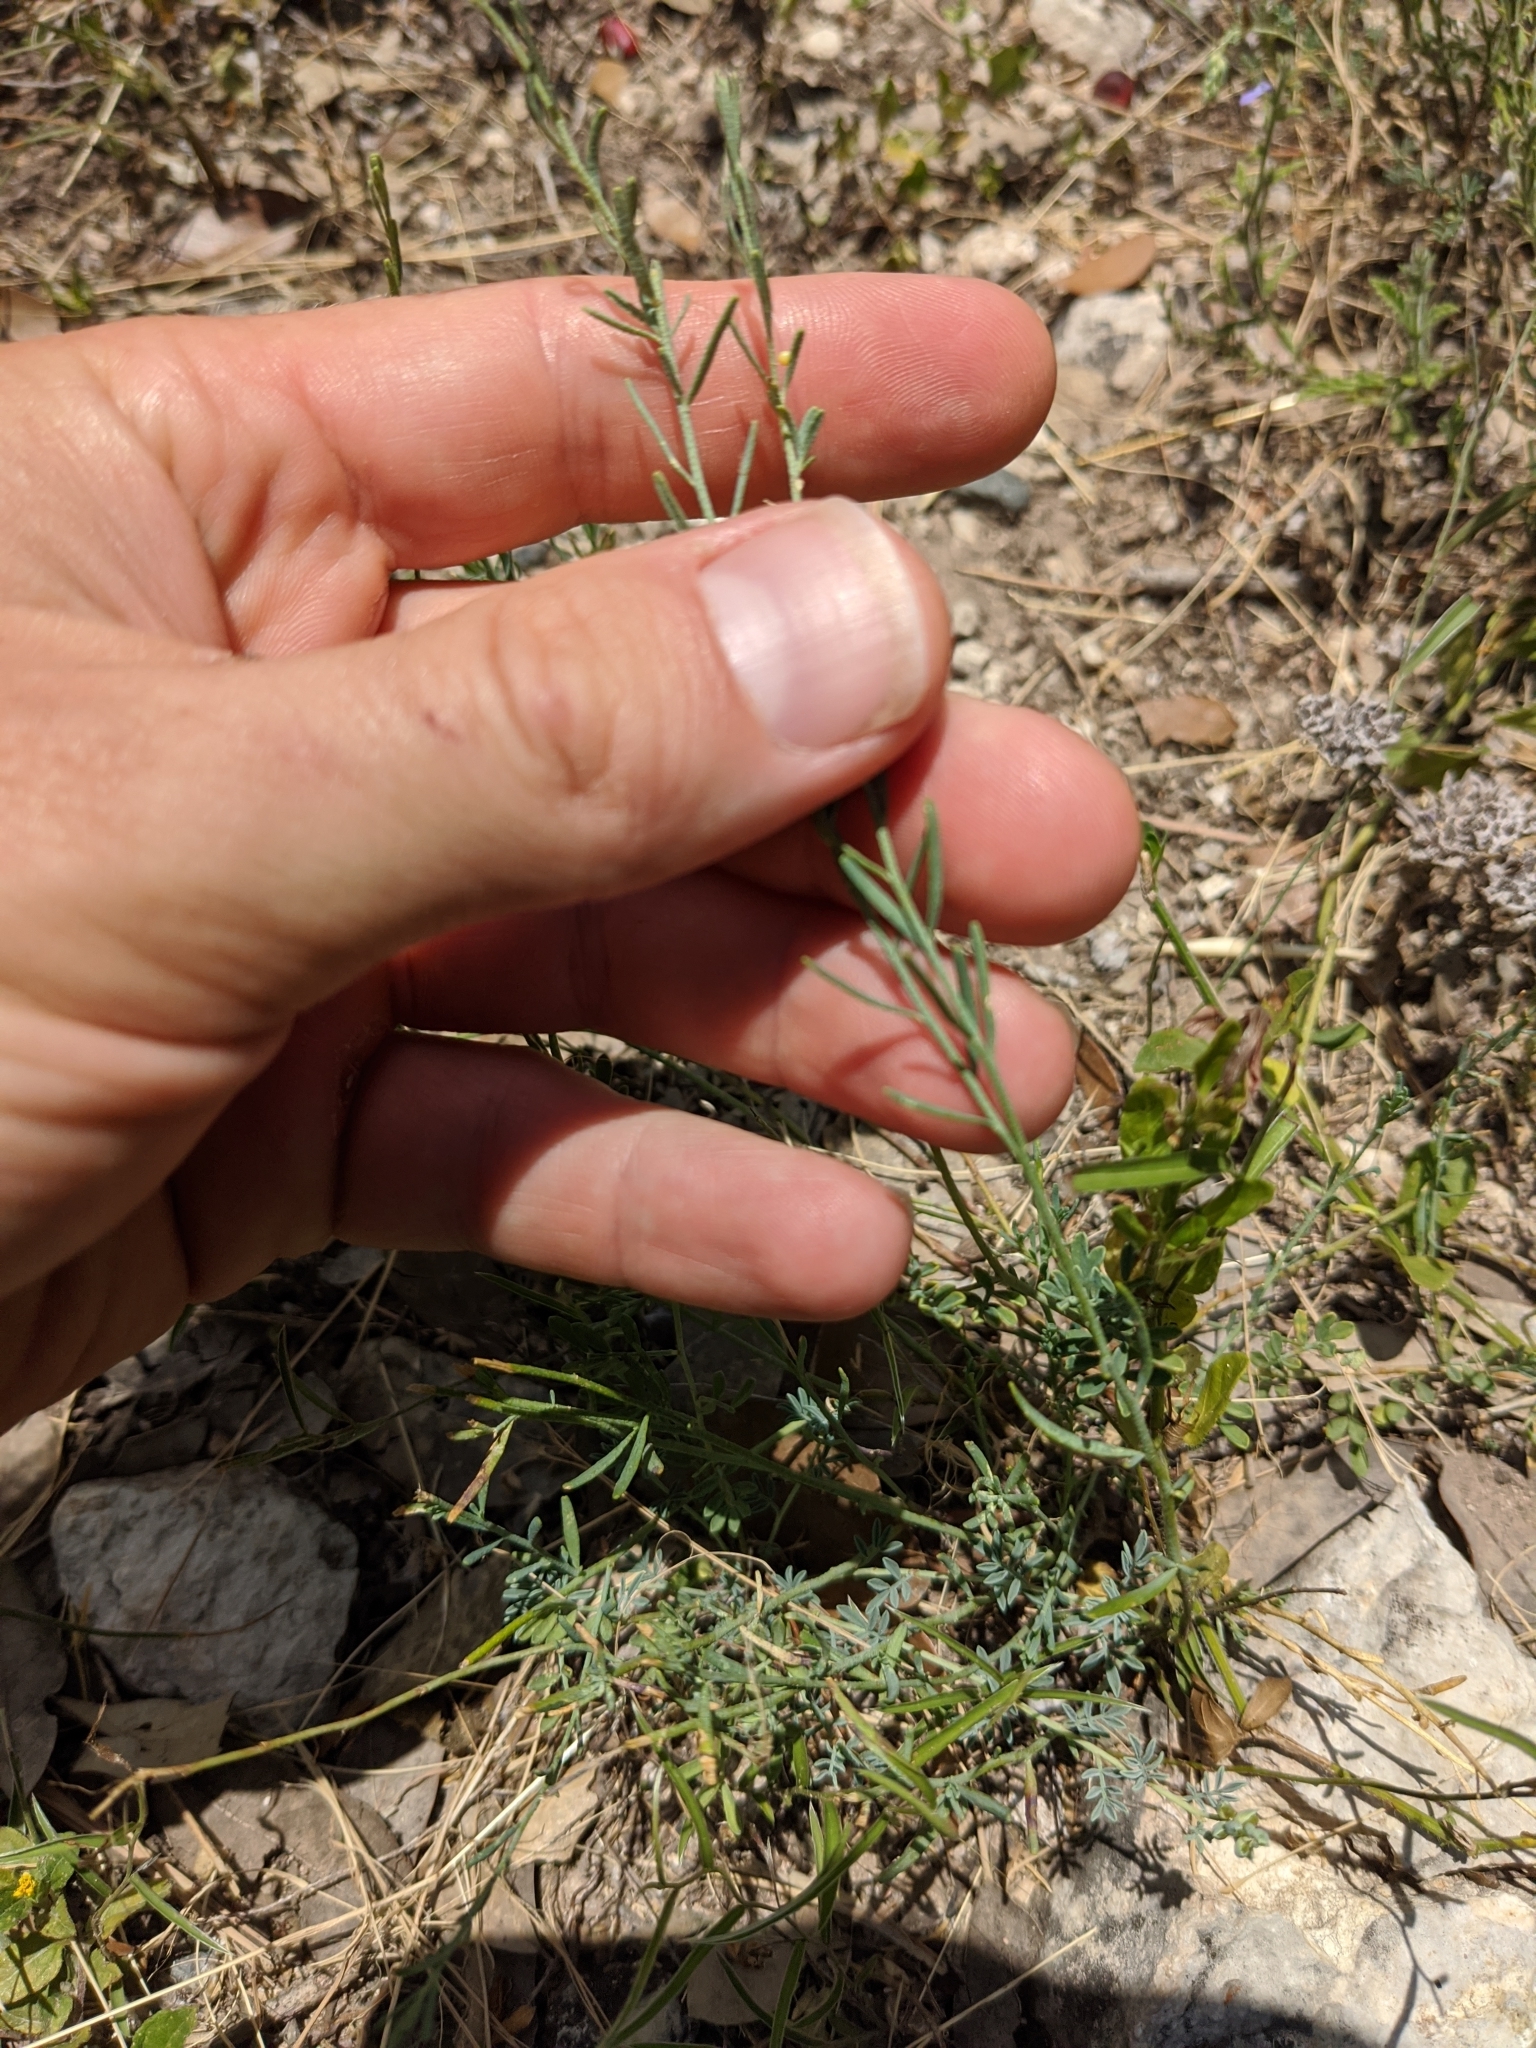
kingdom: Plantae
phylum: Tracheophyta
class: Magnoliopsida
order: Sapindales
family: Rutaceae
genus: Thamnosma
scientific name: Thamnosma texana
